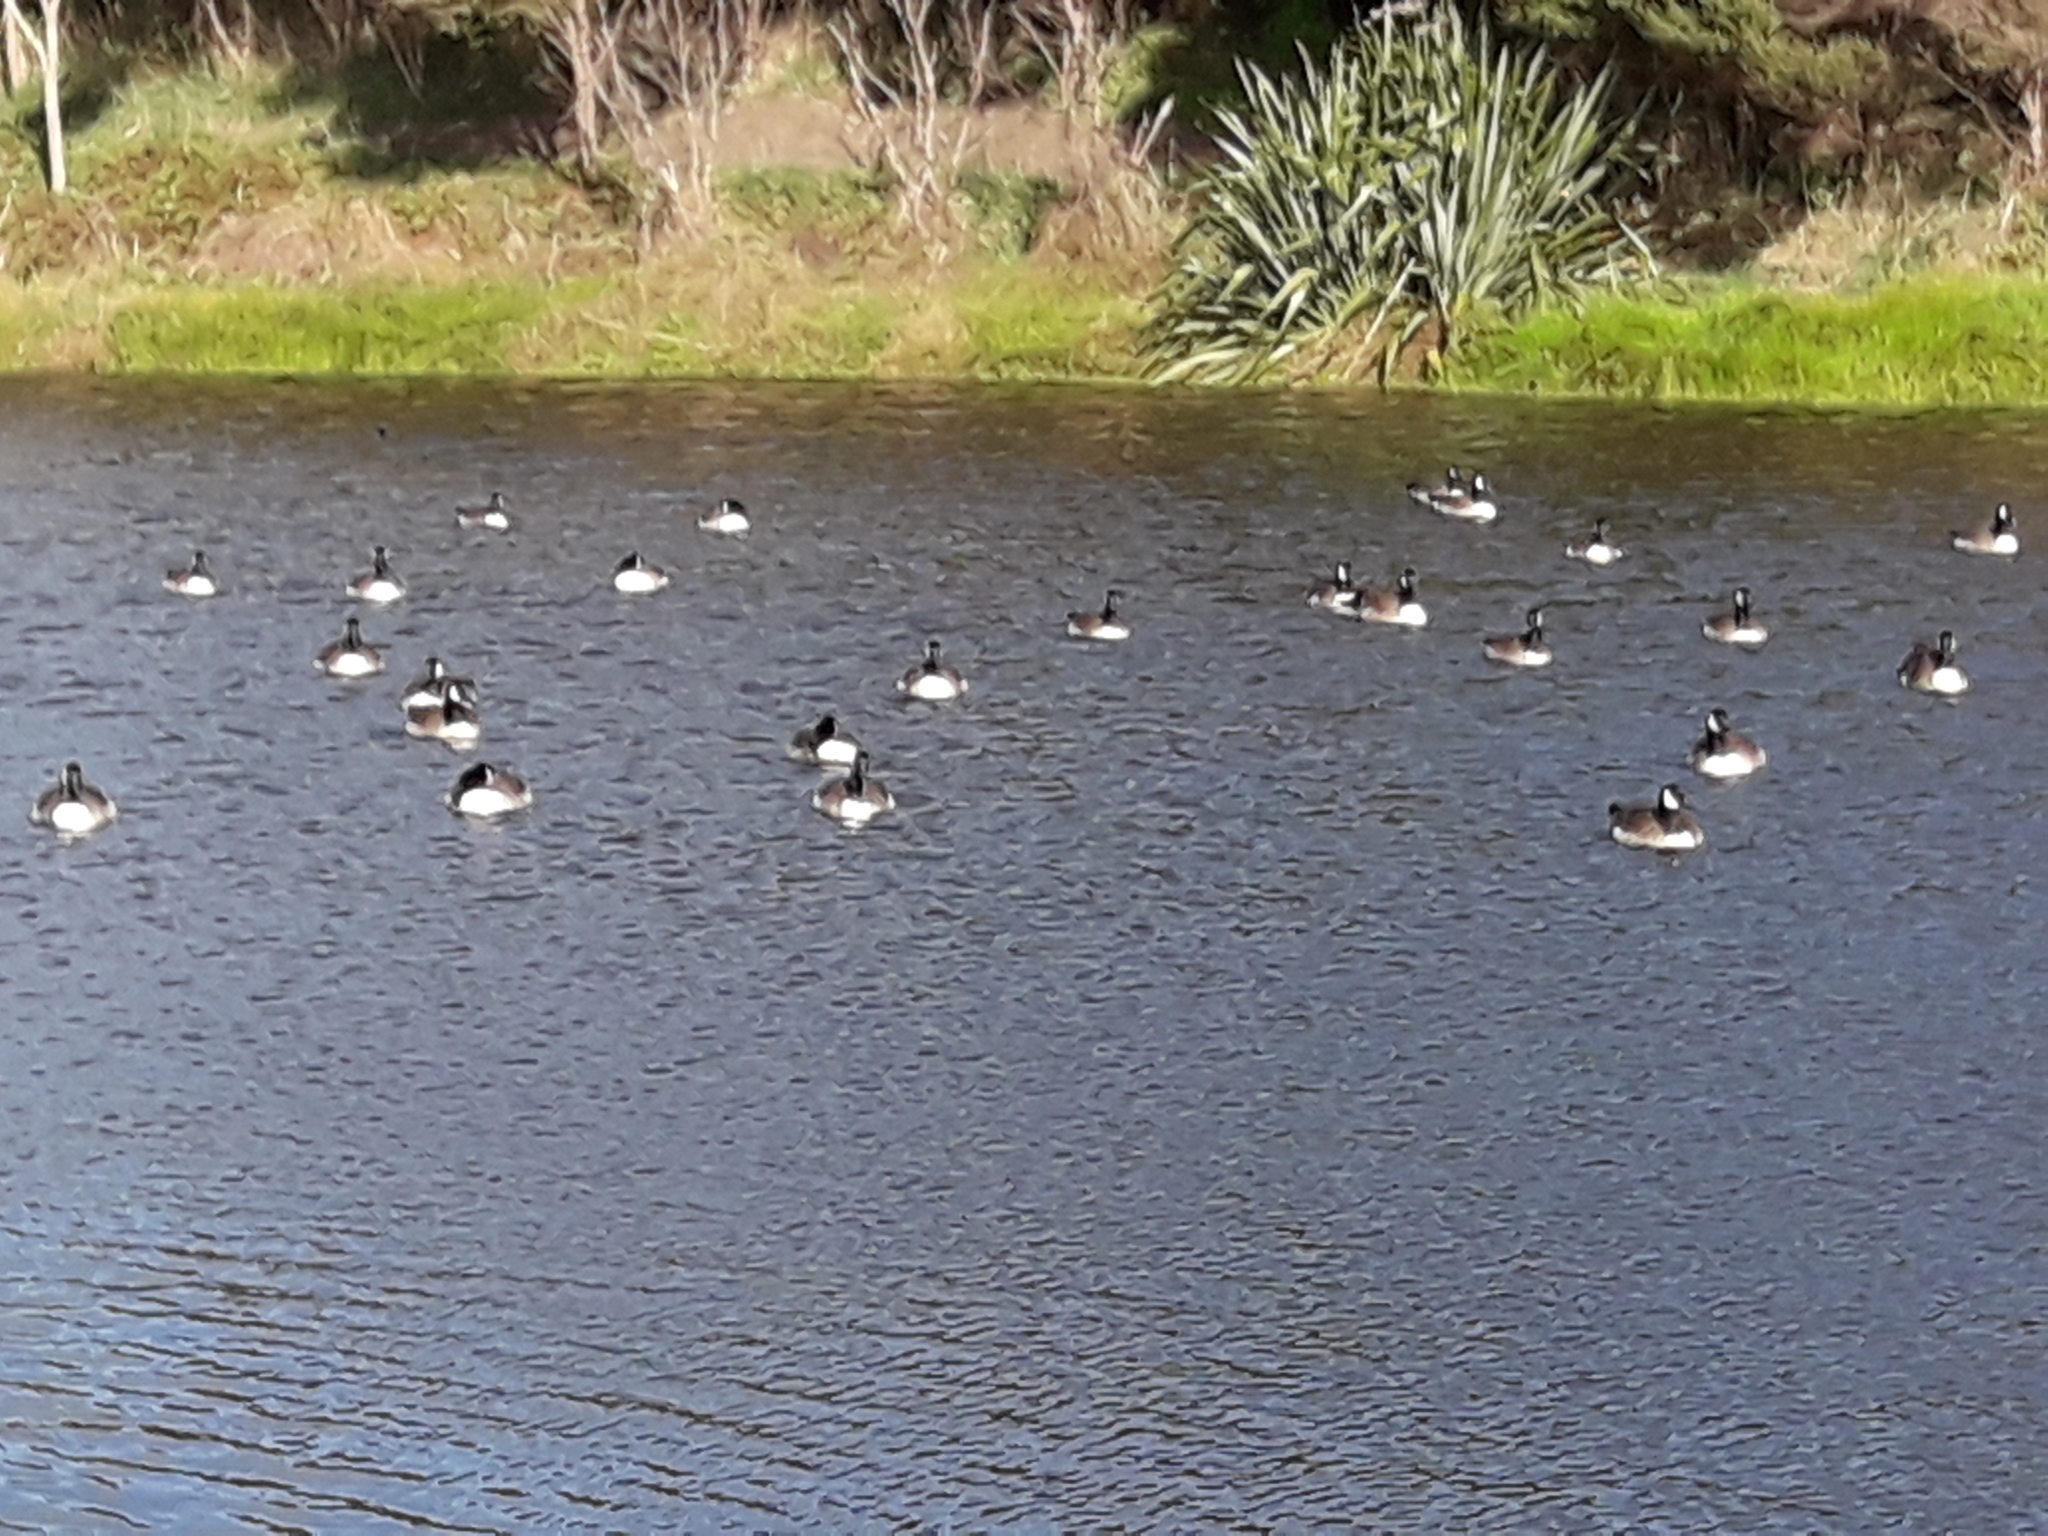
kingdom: Animalia
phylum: Chordata
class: Aves
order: Anseriformes
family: Anatidae
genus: Branta
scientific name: Branta canadensis
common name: Canada goose
